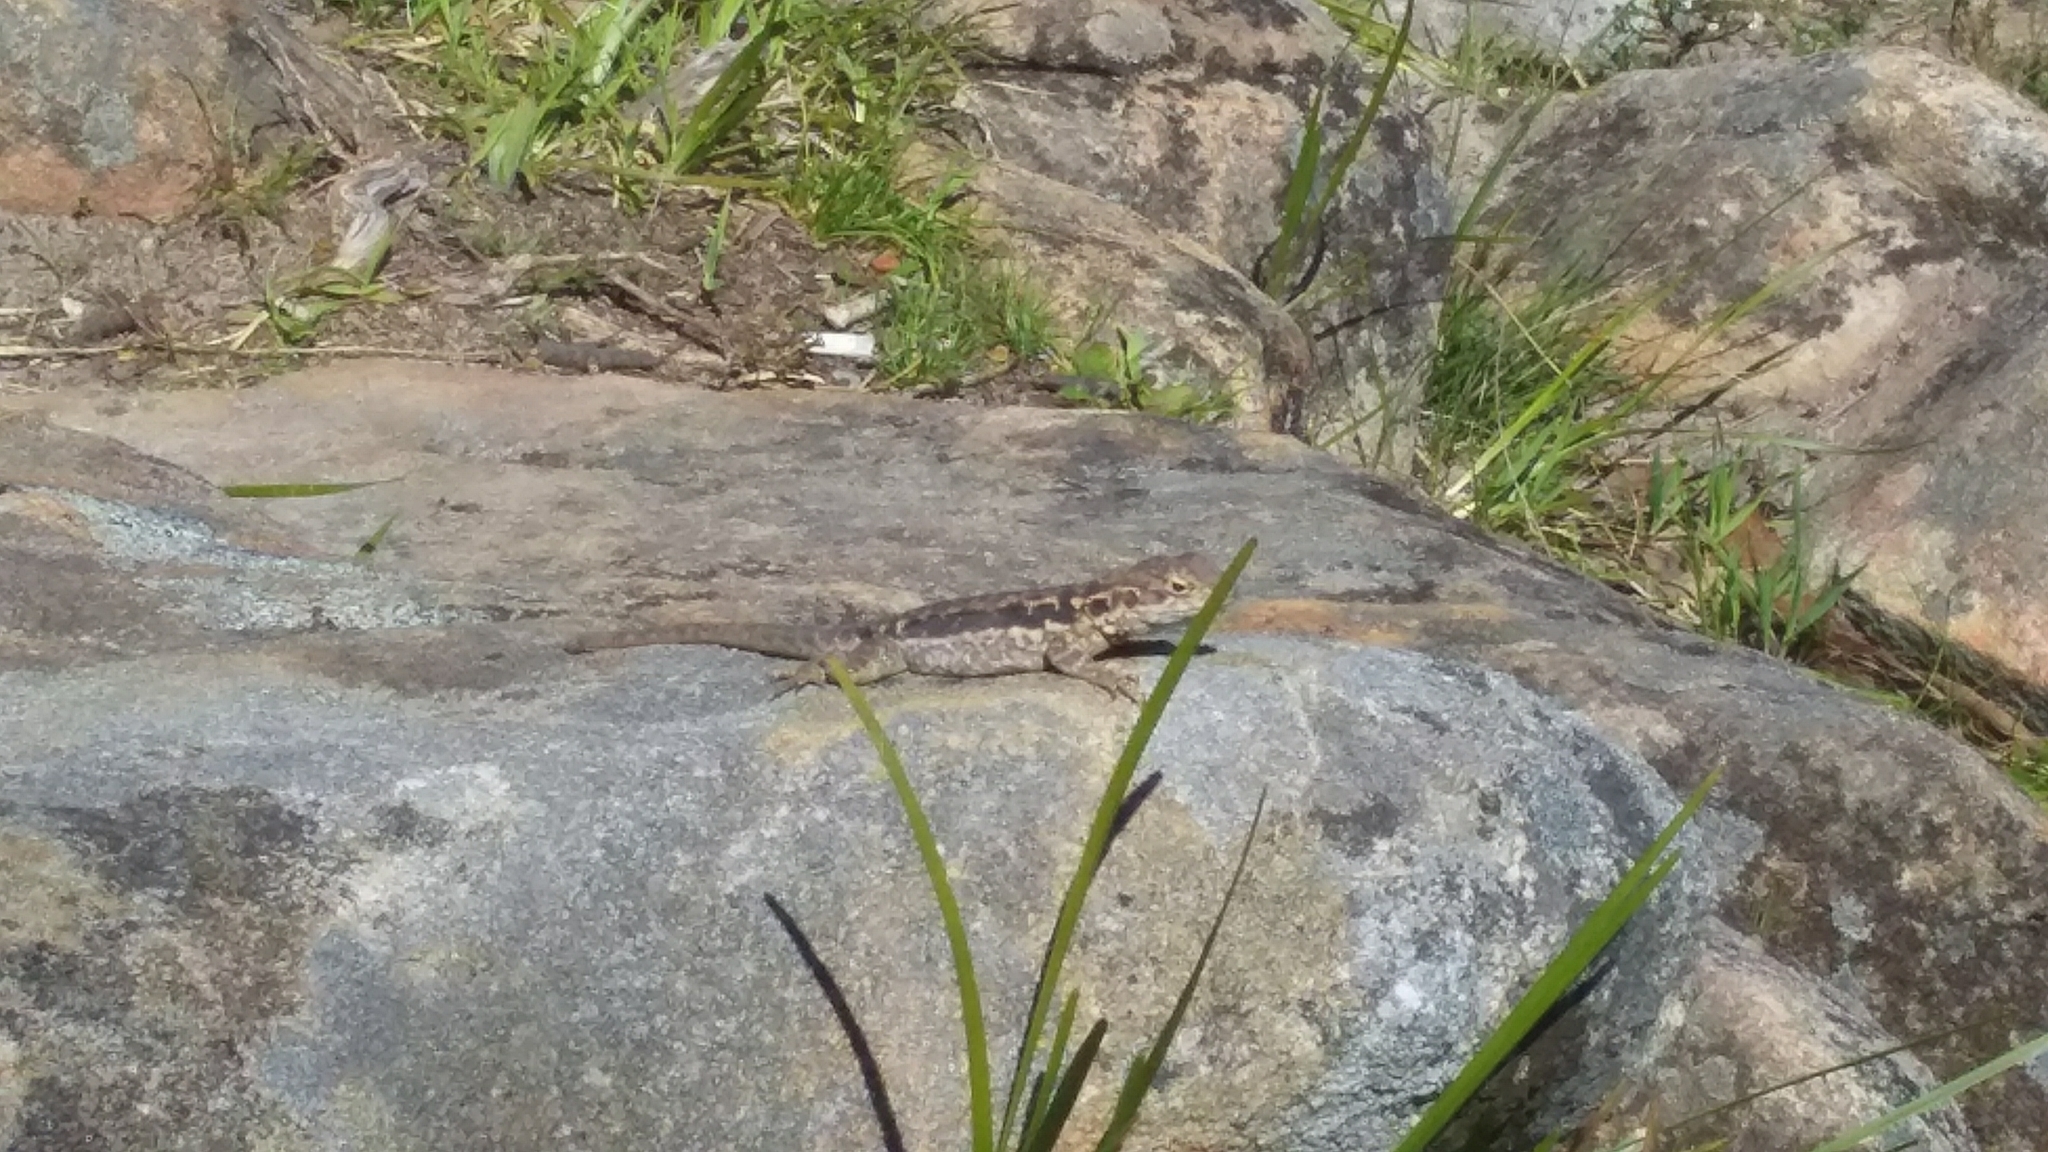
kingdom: Animalia
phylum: Chordata
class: Squamata
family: Agamidae
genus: Ctenophorus
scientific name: Ctenophorus decresii
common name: Tawny dragon
